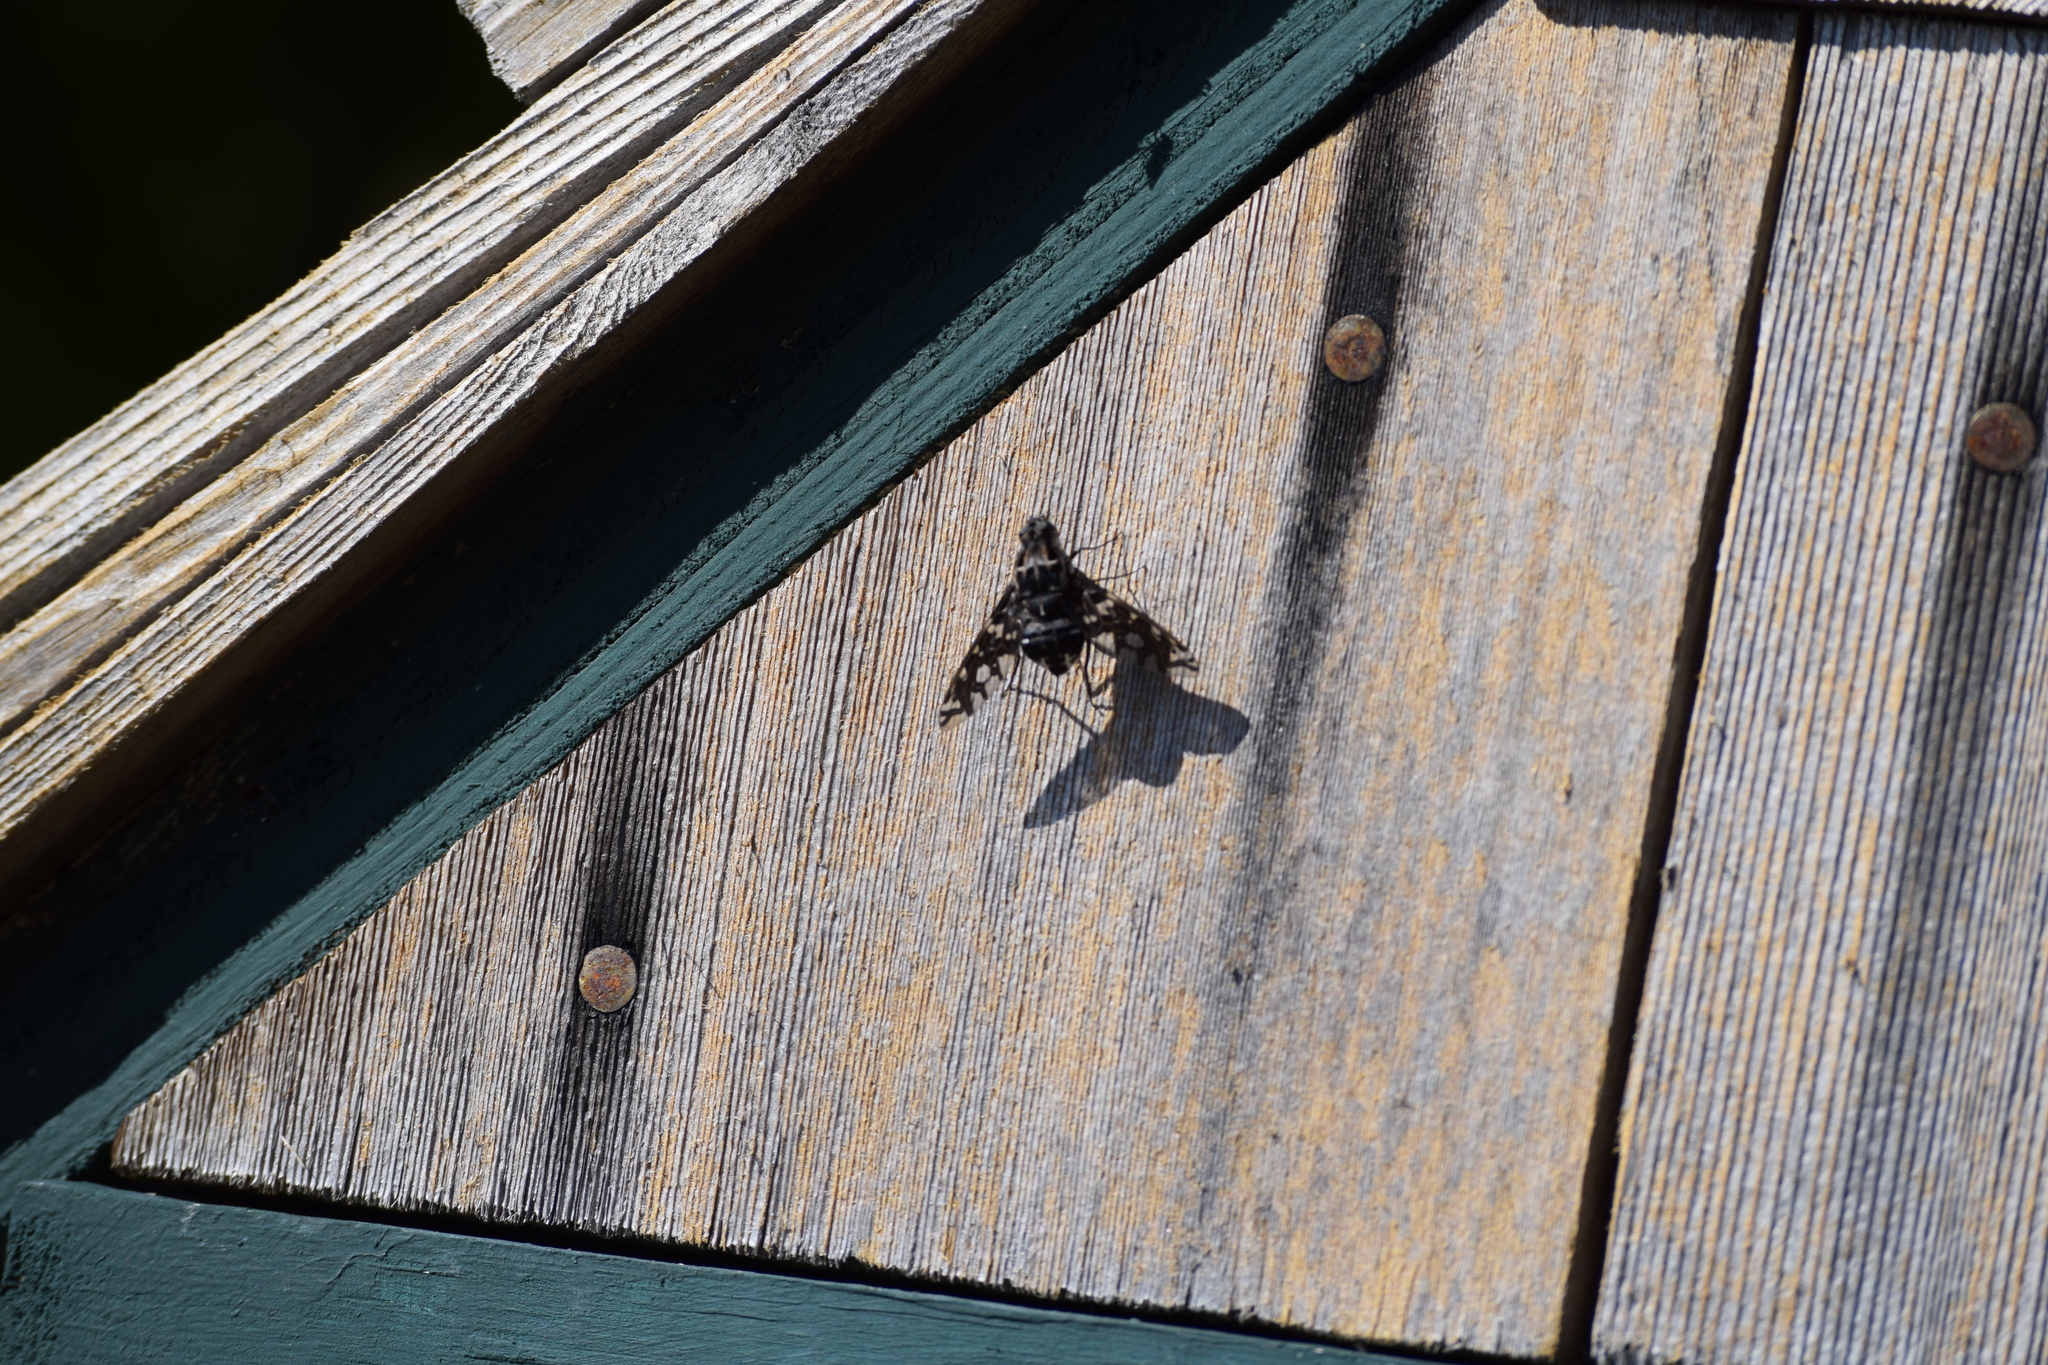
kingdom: Animalia
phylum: Arthropoda
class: Insecta
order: Diptera
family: Bombyliidae
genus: Xenox
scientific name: Xenox tigrinus
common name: Tiger bee fly
